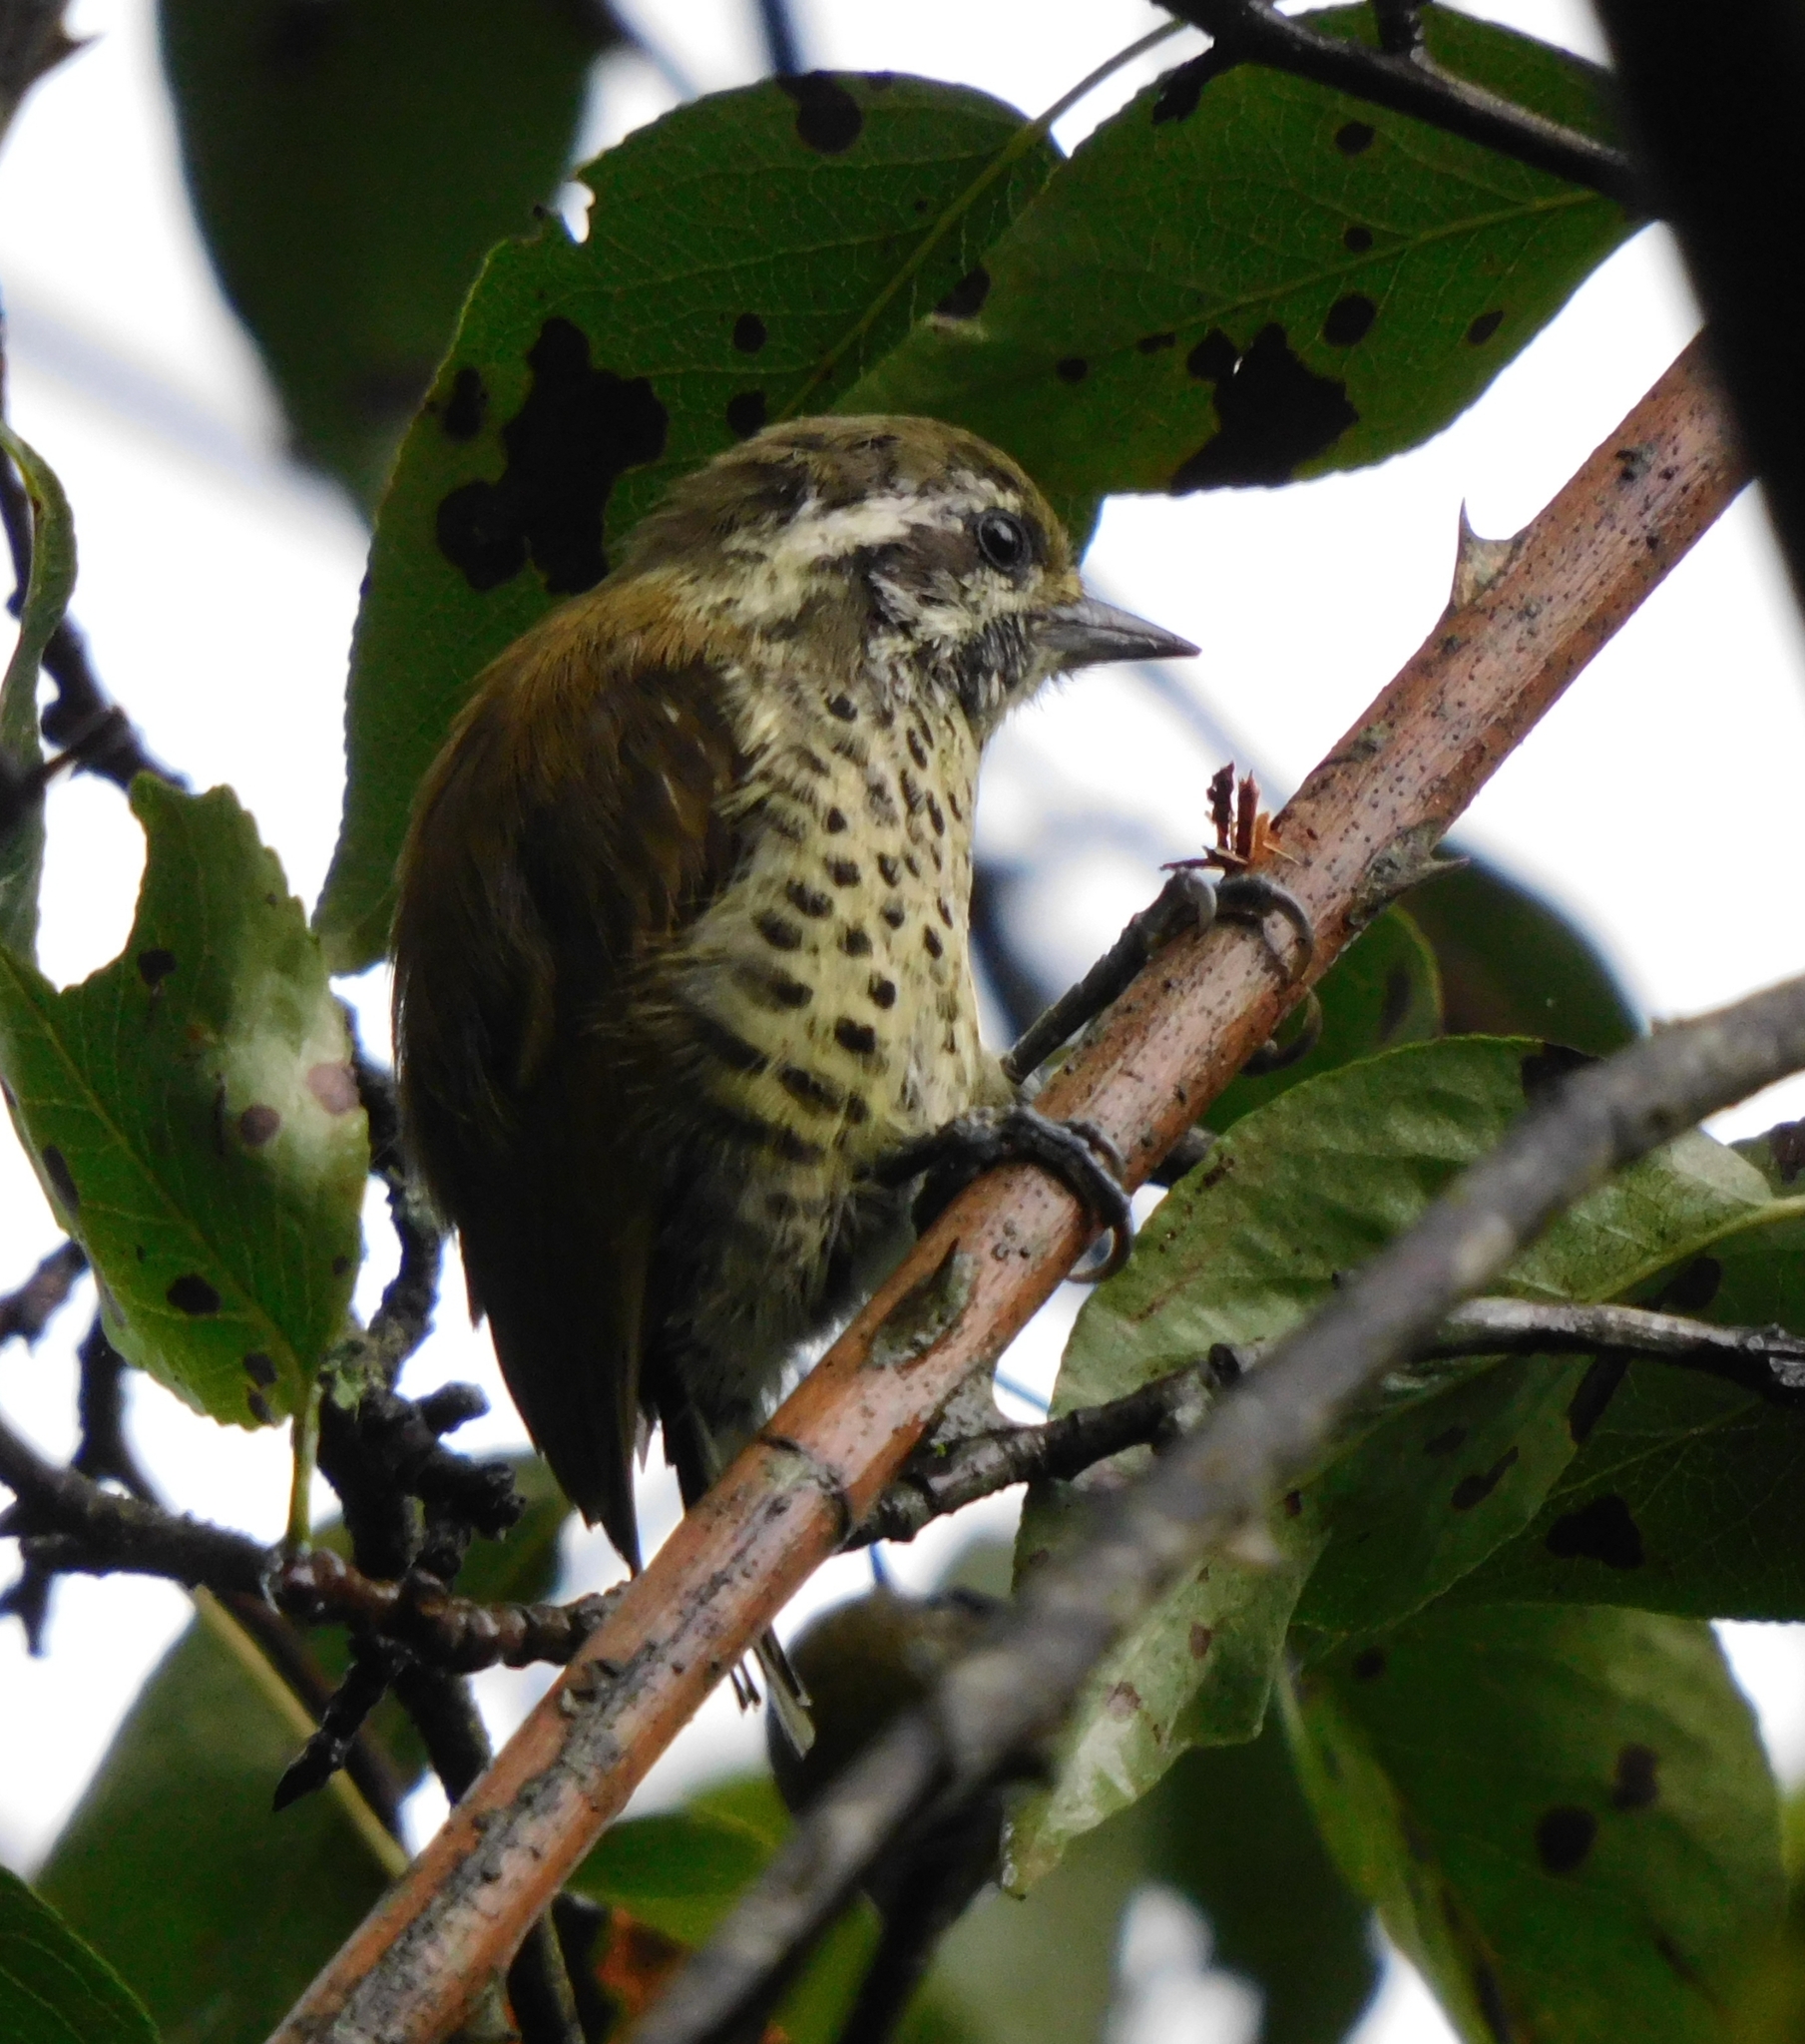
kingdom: Animalia
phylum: Chordata
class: Aves
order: Piciformes
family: Picidae
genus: Picumnus
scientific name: Picumnus innominatus
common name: Speckled piculet
